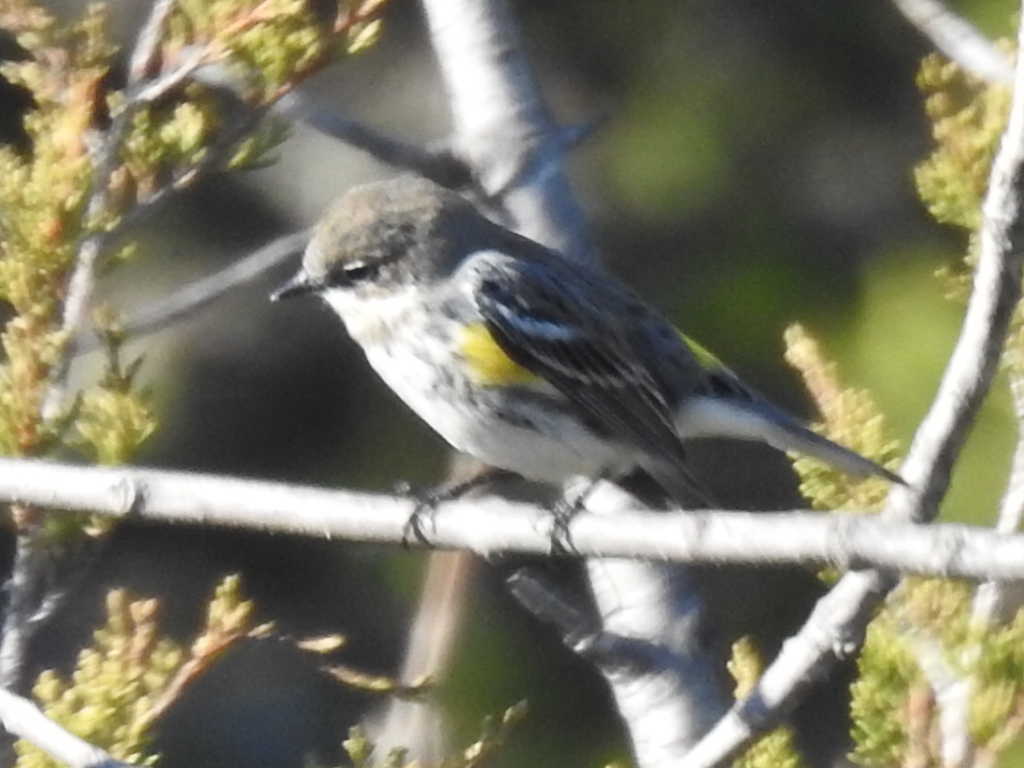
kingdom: Animalia
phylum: Chordata
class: Aves
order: Passeriformes
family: Parulidae
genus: Setophaga
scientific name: Setophaga coronata
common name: Myrtle warbler
